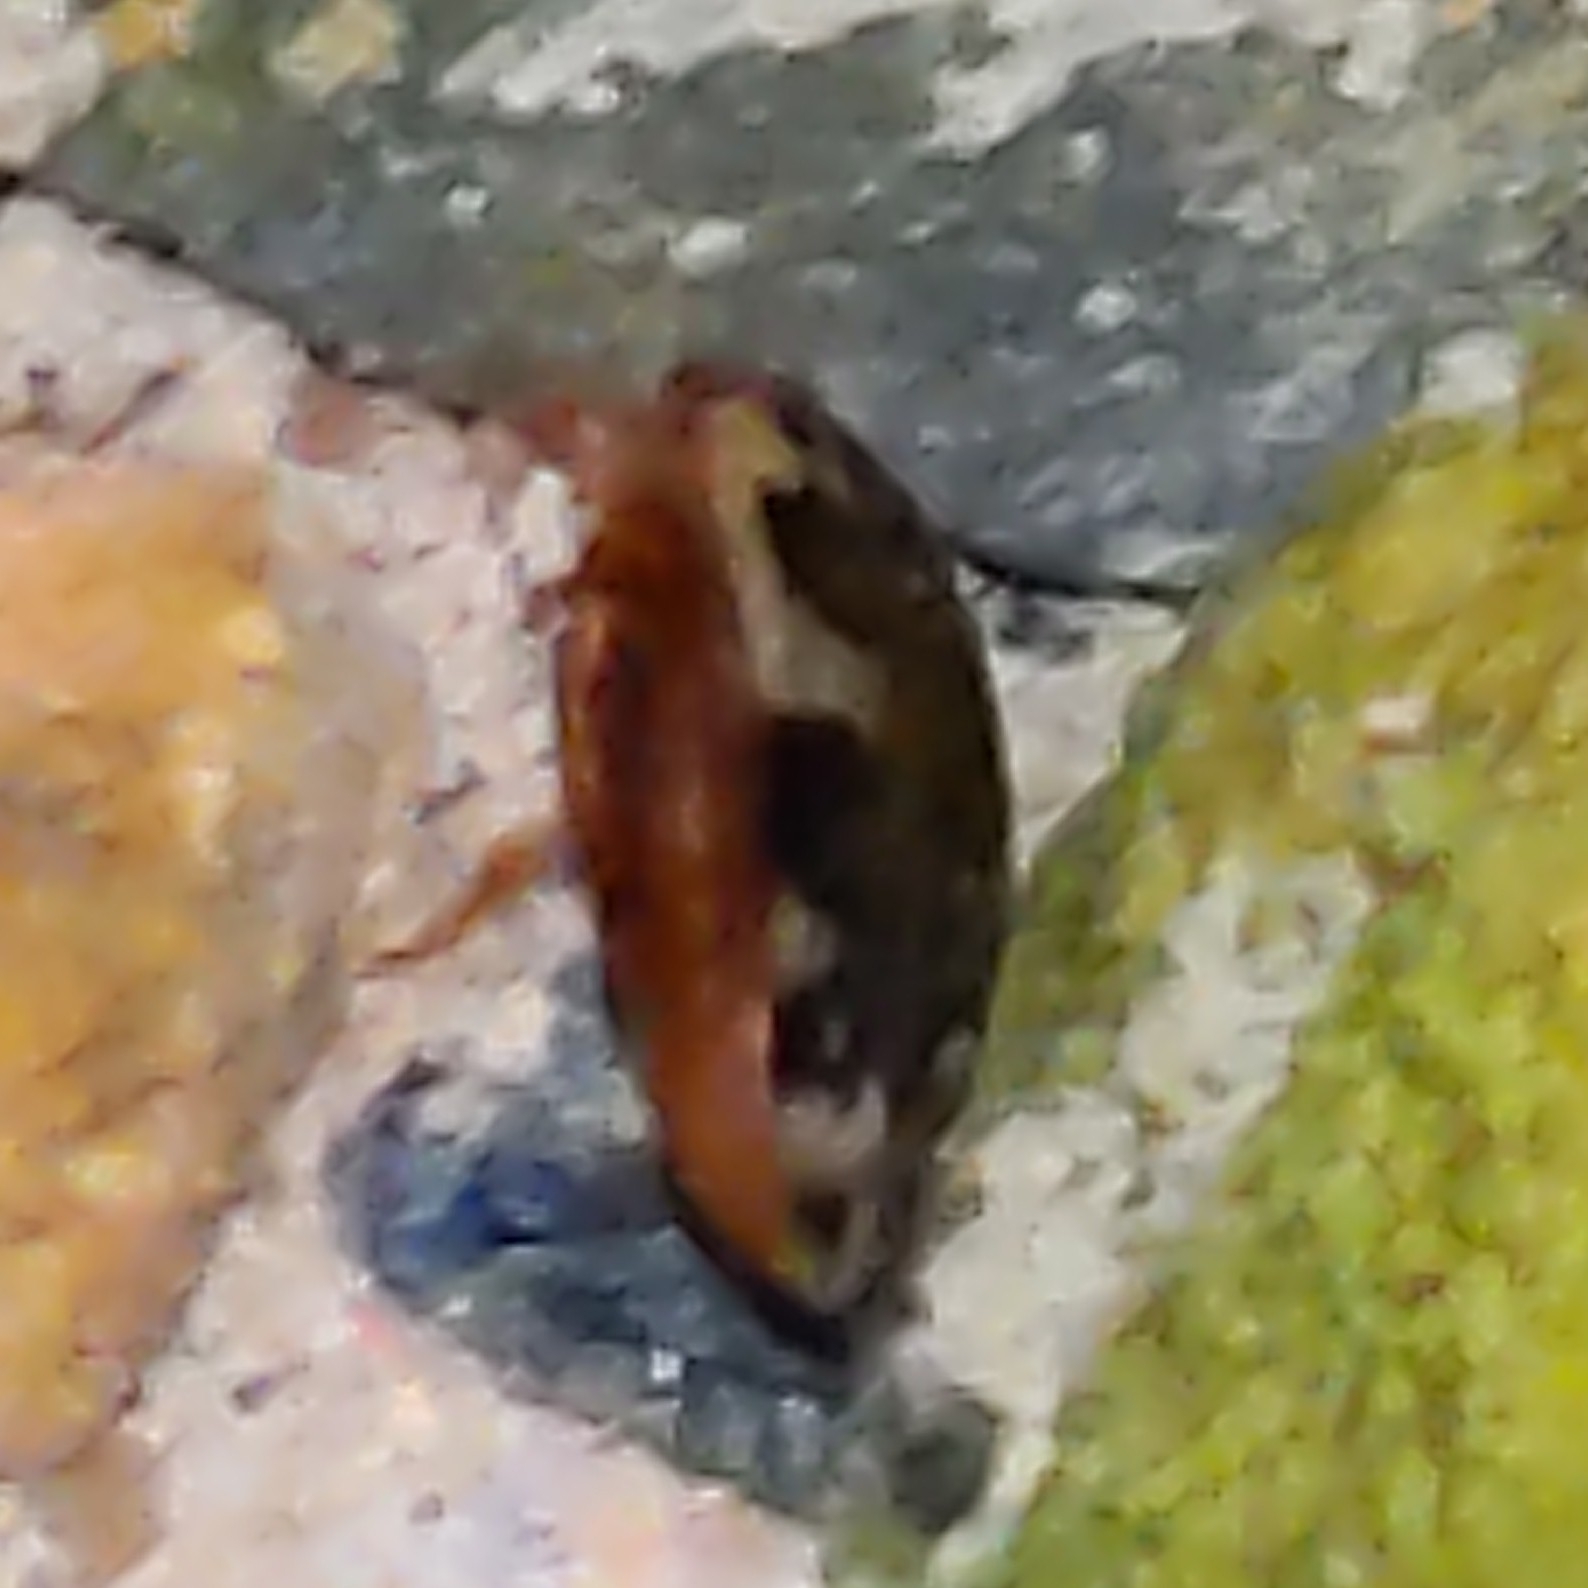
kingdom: Animalia
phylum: Arthropoda
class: Insecta
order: Coleoptera
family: Dytiscidae
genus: Laccophilus
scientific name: Laccophilus maculosus
